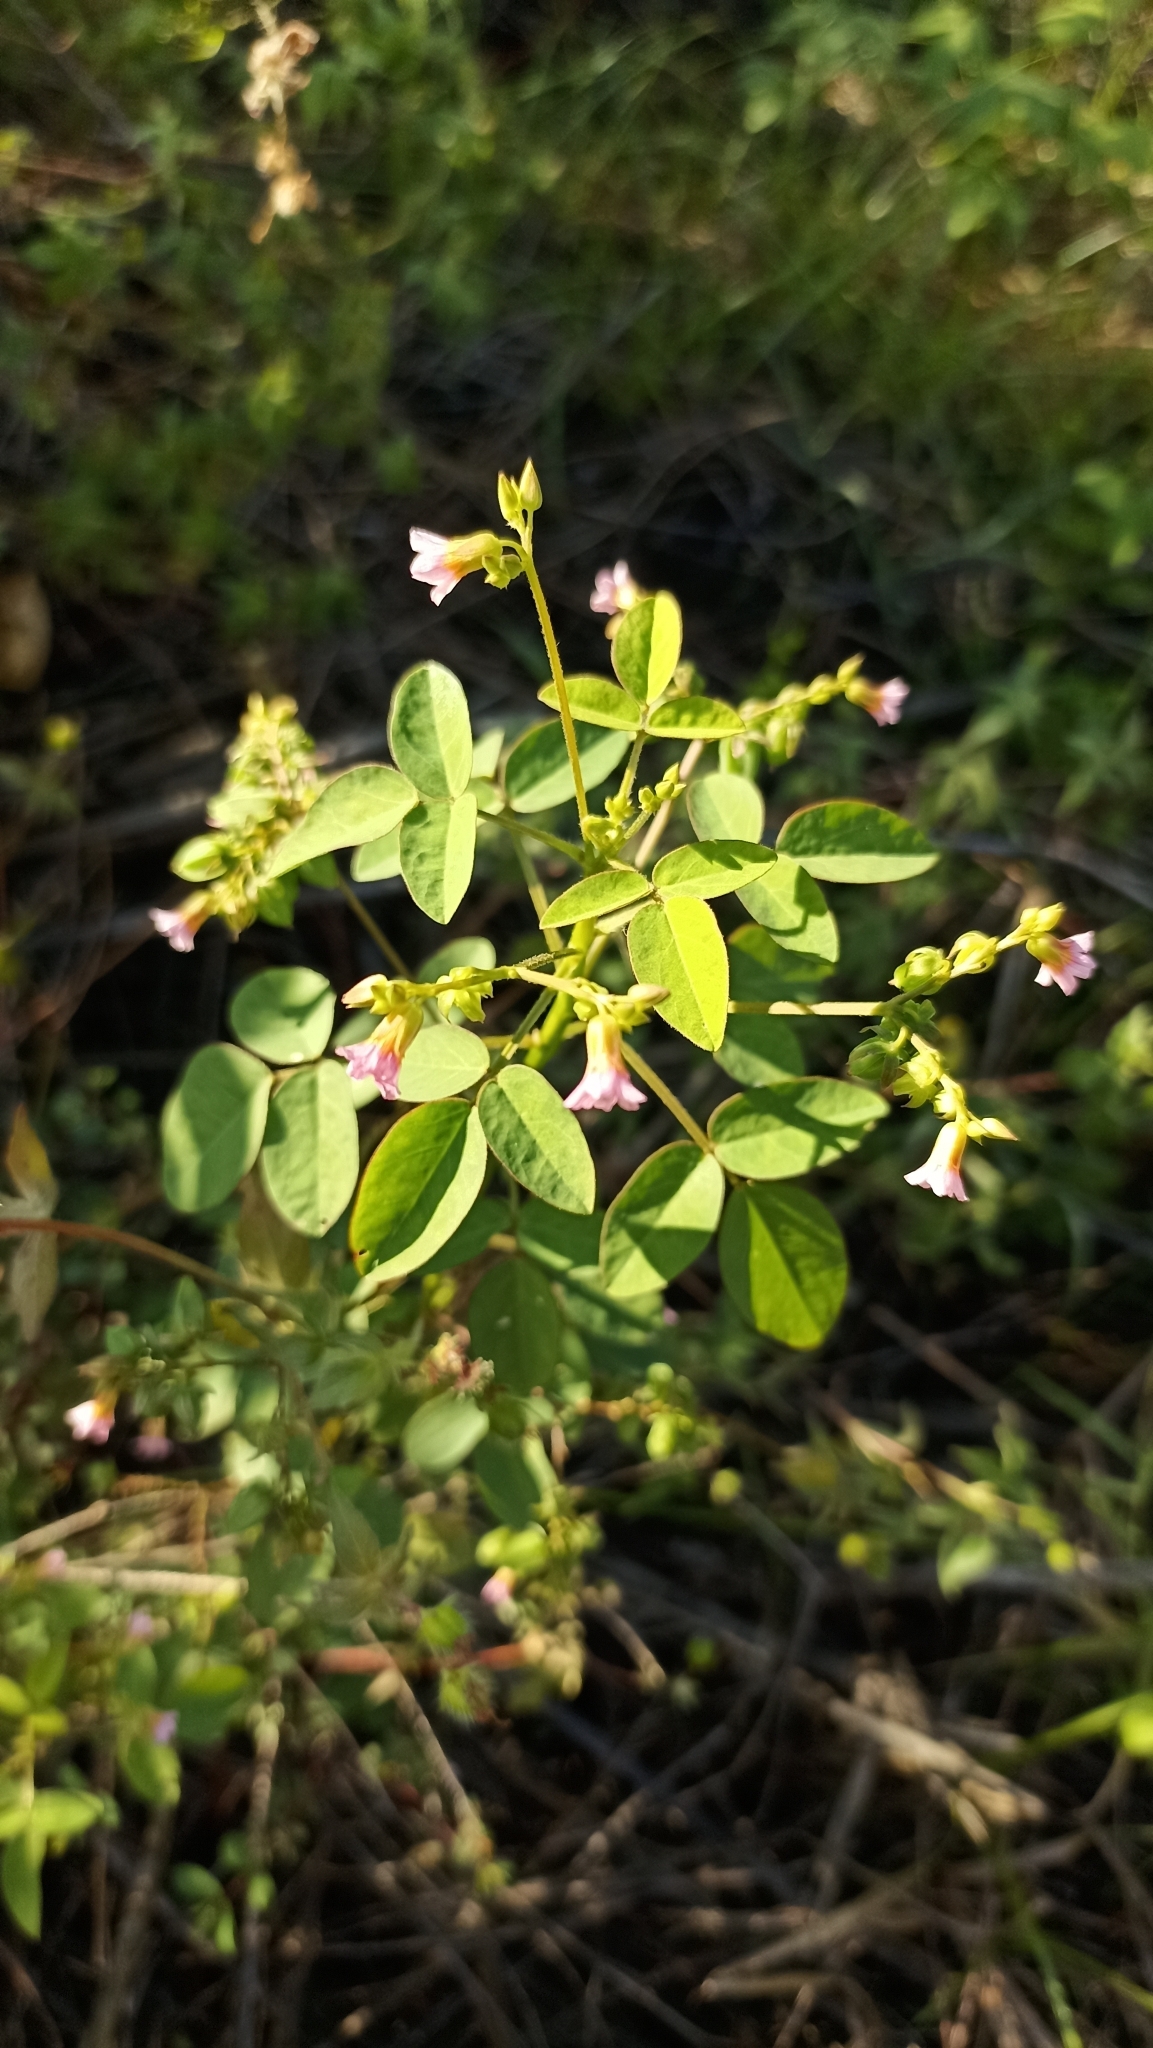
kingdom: Plantae
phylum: Tracheophyta
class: Magnoliopsida
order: Oxalidales
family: Oxalidaceae
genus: Oxalis
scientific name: Oxalis barrelieri
